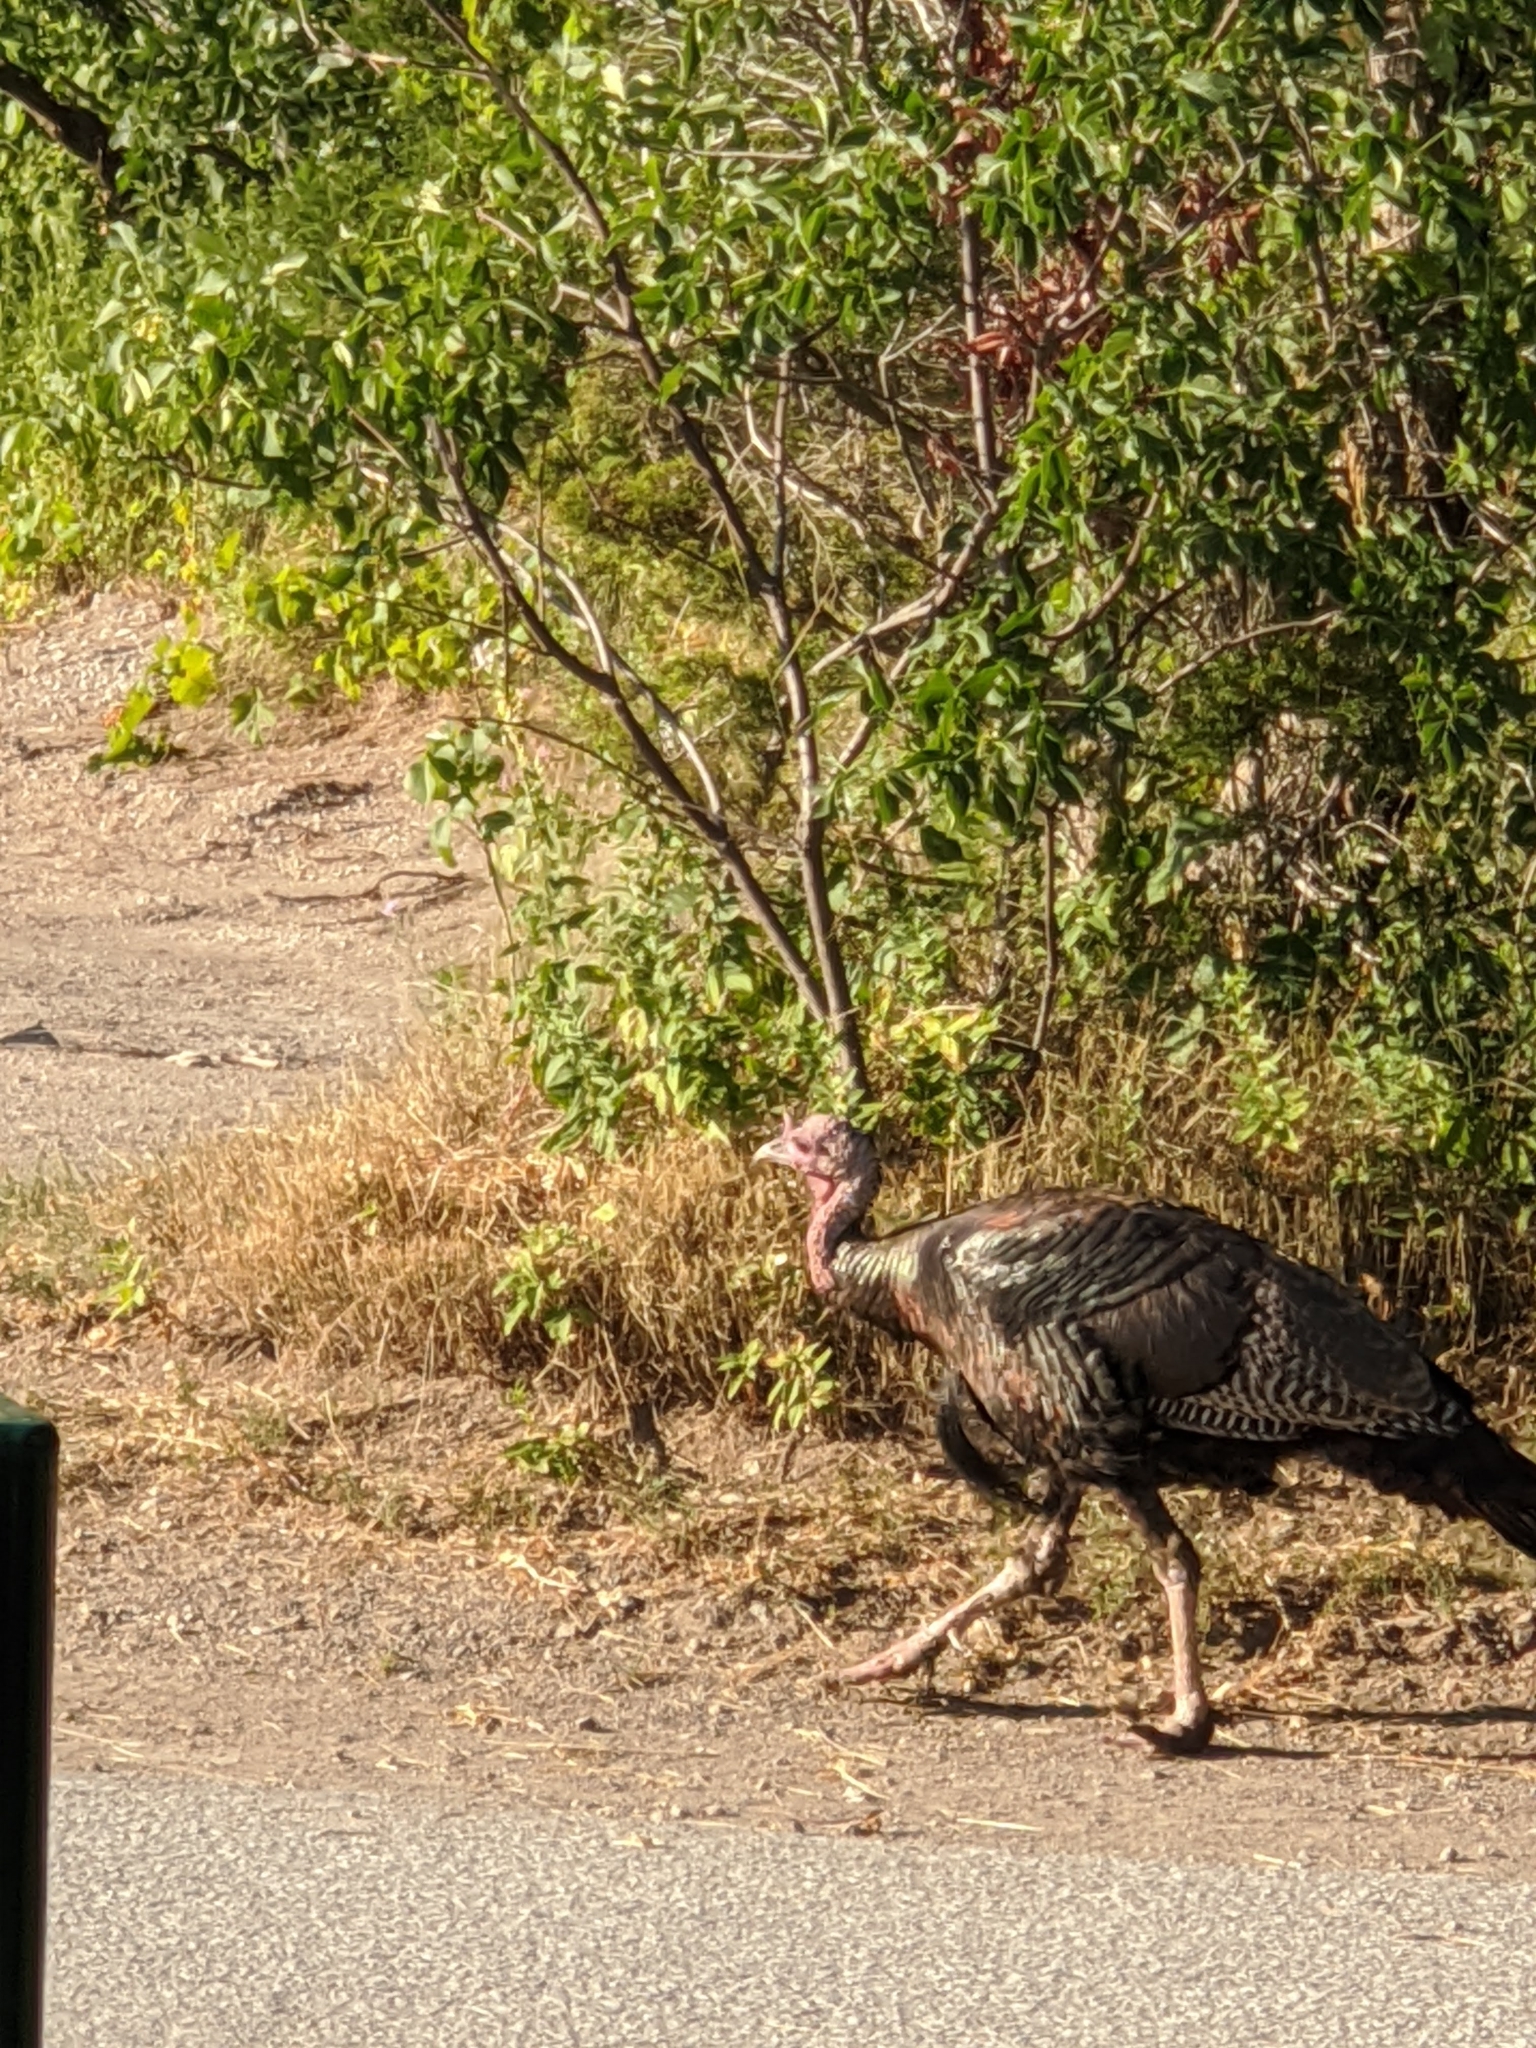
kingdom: Animalia
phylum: Chordata
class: Aves
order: Galliformes
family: Phasianidae
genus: Meleagris
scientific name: Meleagris gallopavo
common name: Wild turkey
